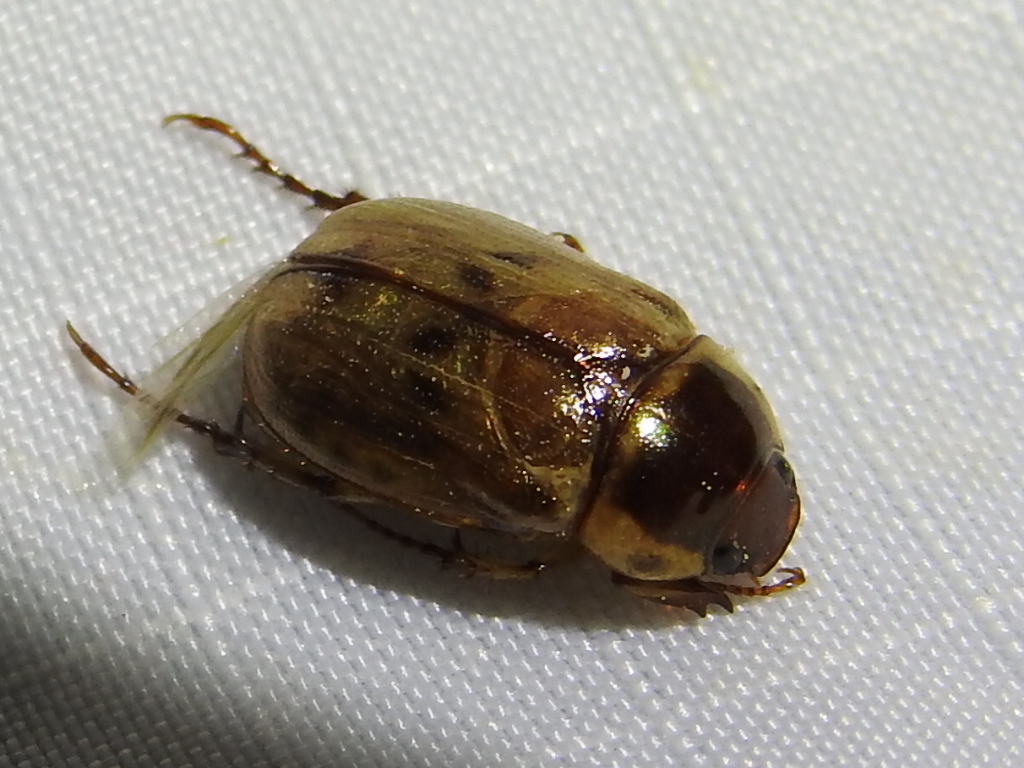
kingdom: Animalia
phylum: Arthropoda
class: Insecta
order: Coleoptera
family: Scarabaeidae
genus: Anomala
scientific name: Anomala innuba
